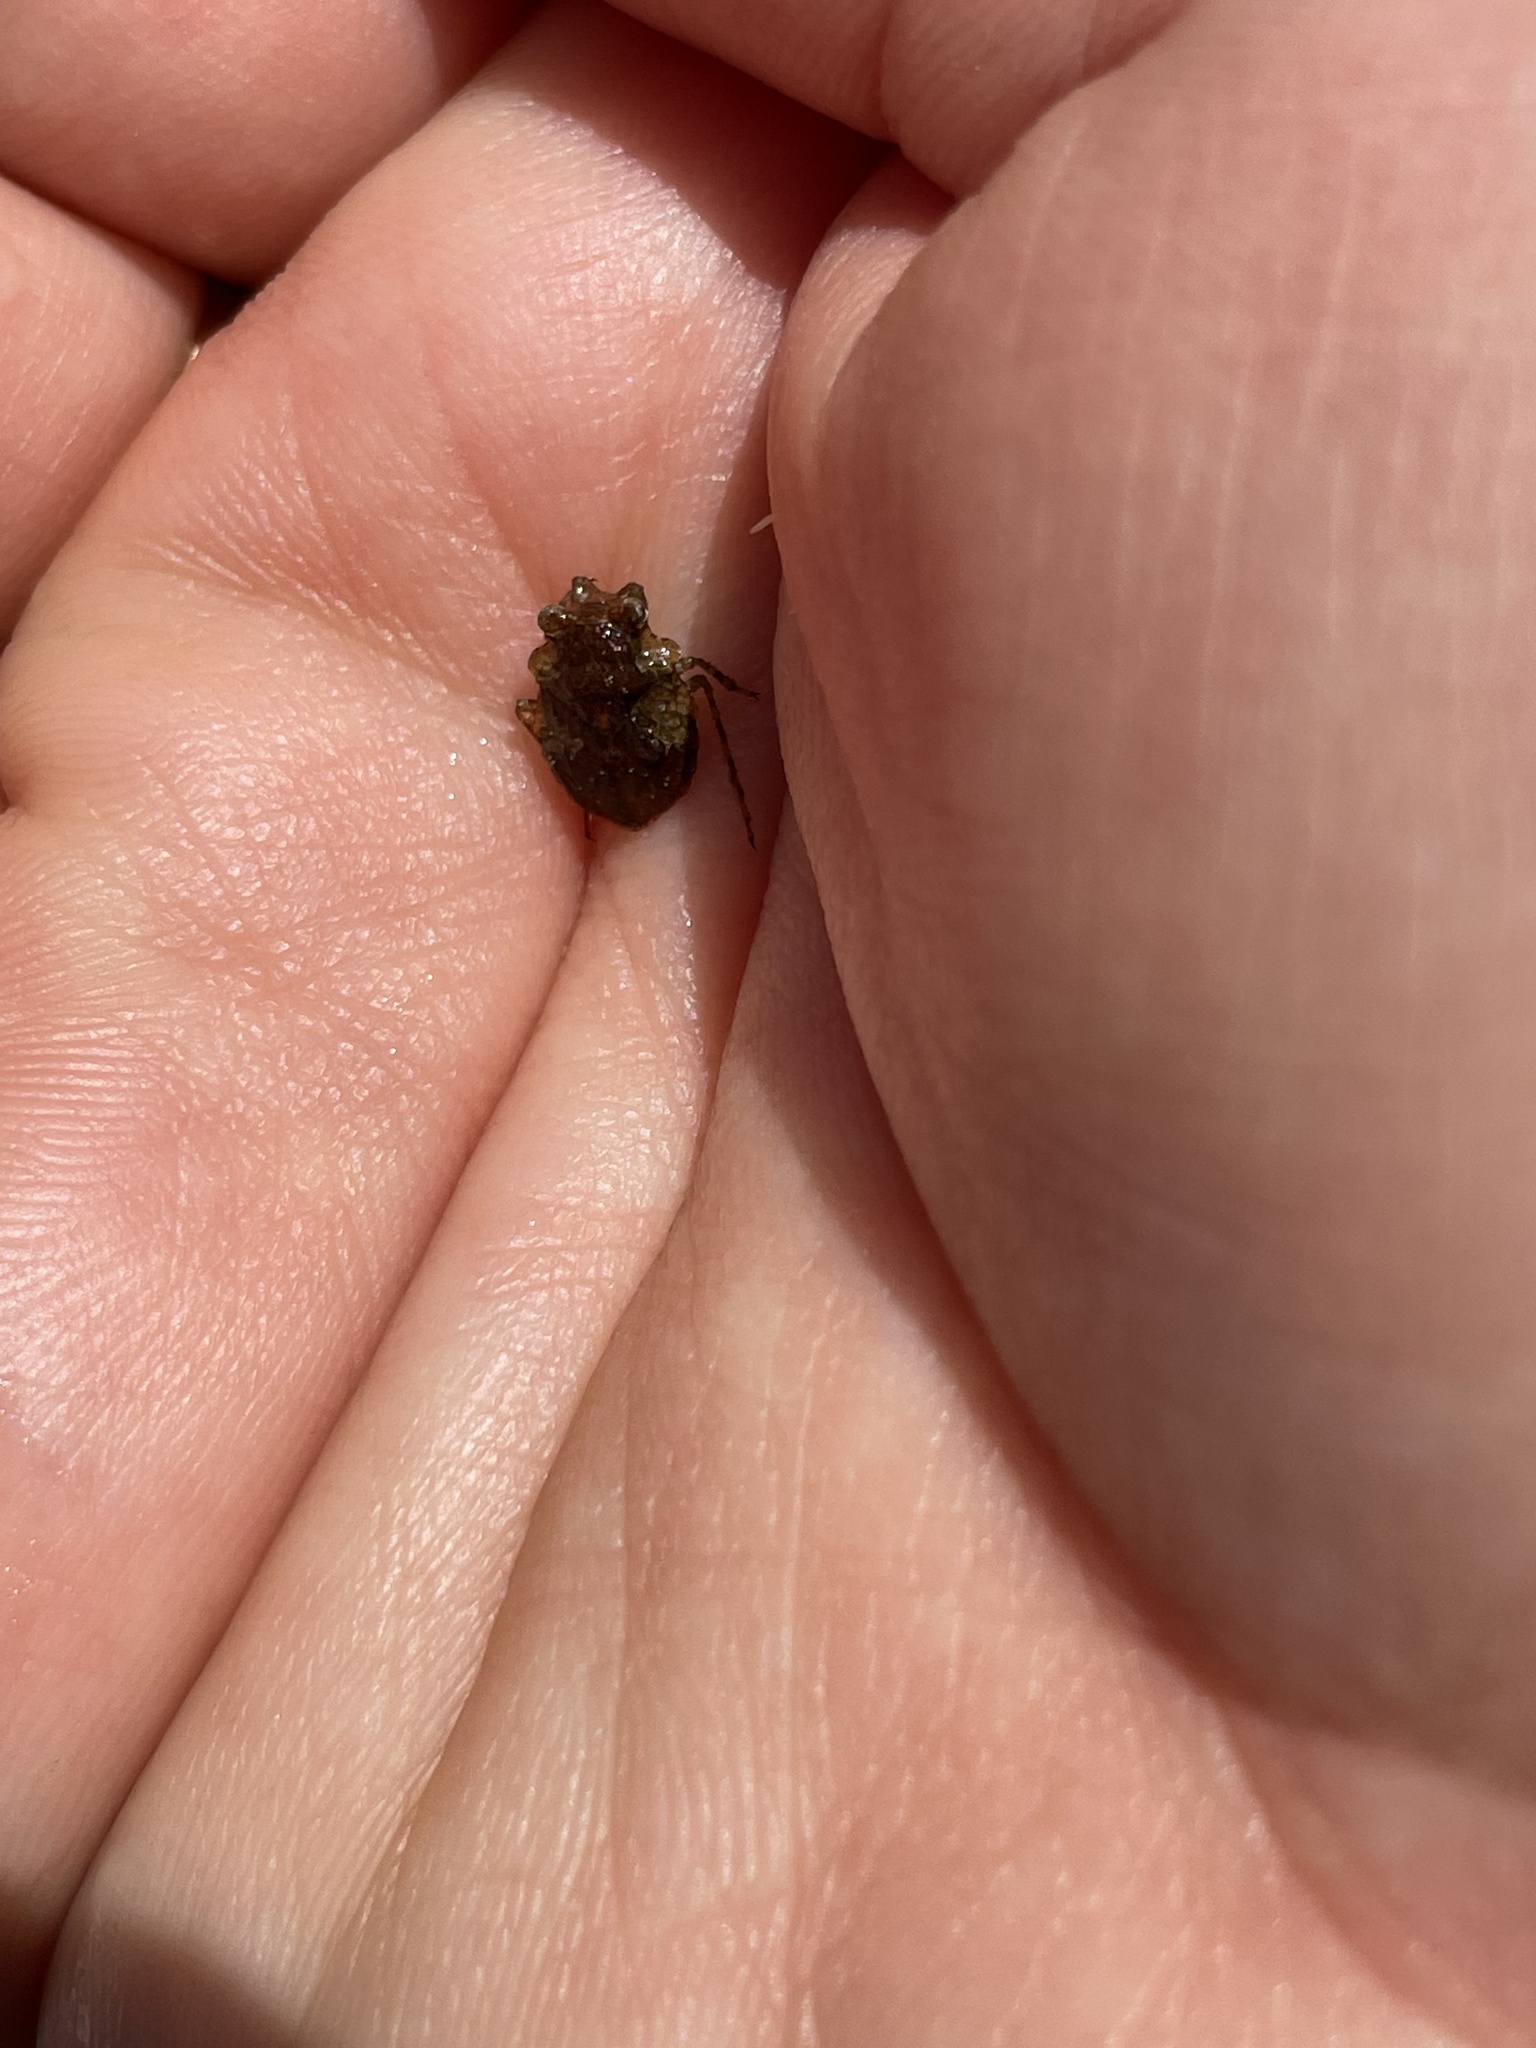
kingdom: Animalia
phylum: Arthropoda
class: Insecta
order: Hemiptera
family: Gelastocoridae
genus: Gelastocoris
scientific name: Gelastocoris oculatus
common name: Toad bug
